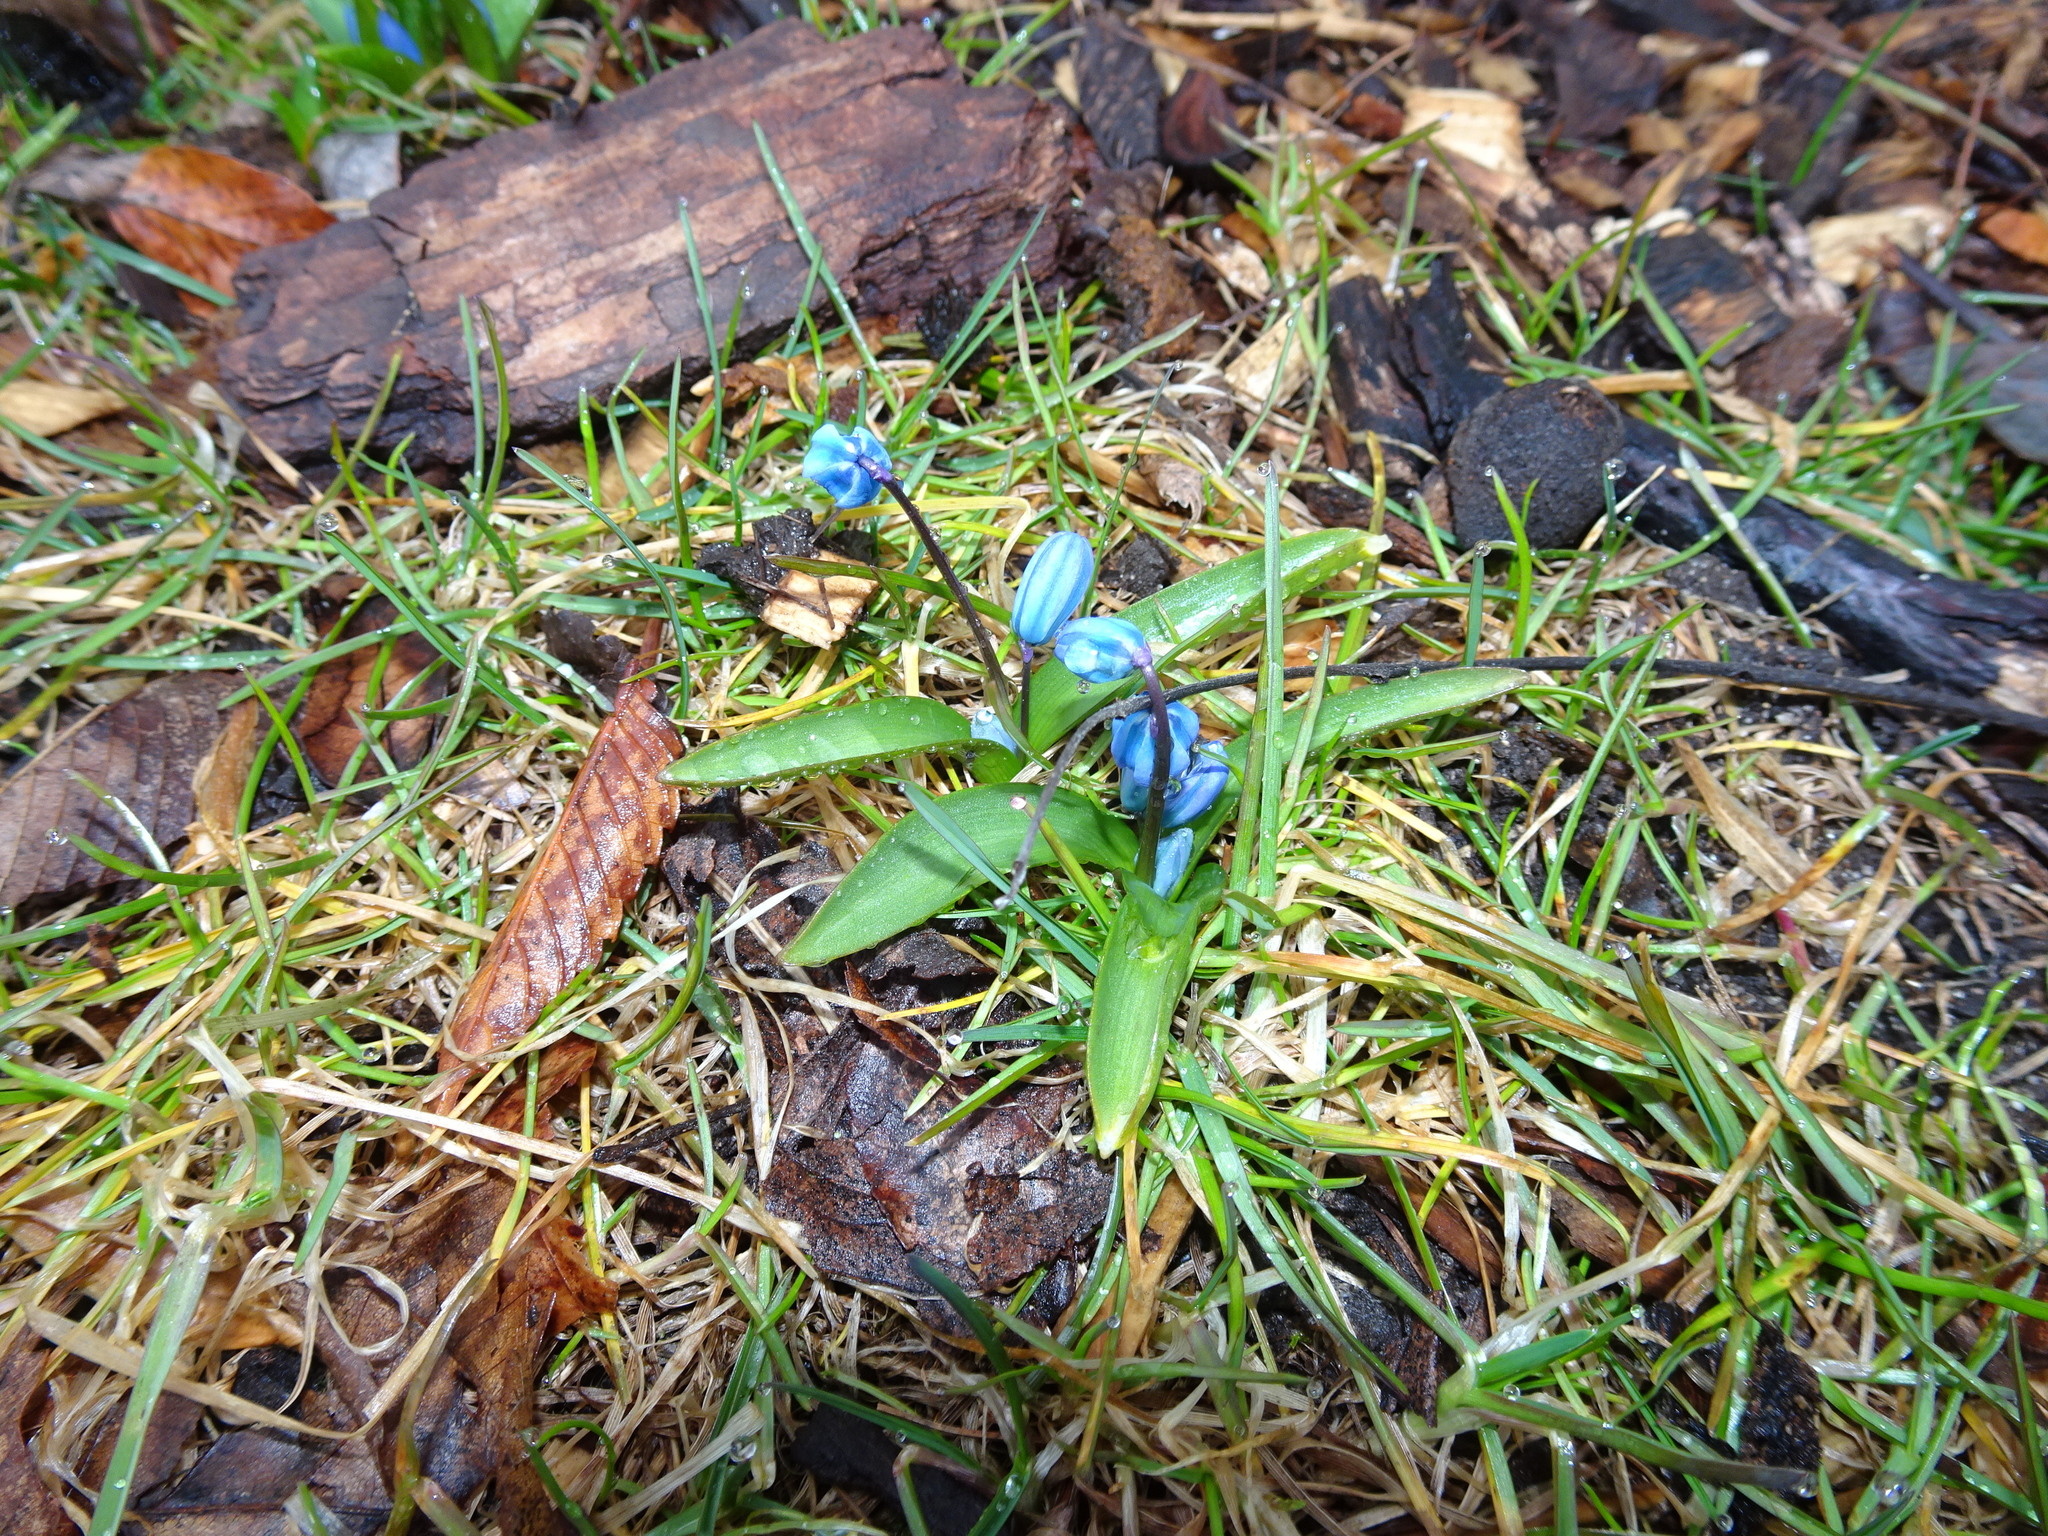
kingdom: Plantae
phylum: Tracheophyta
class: Liliopsida
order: Asparagales
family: Asparagaceae
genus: Scilla
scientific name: Scilla siberica
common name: Siberian squill
